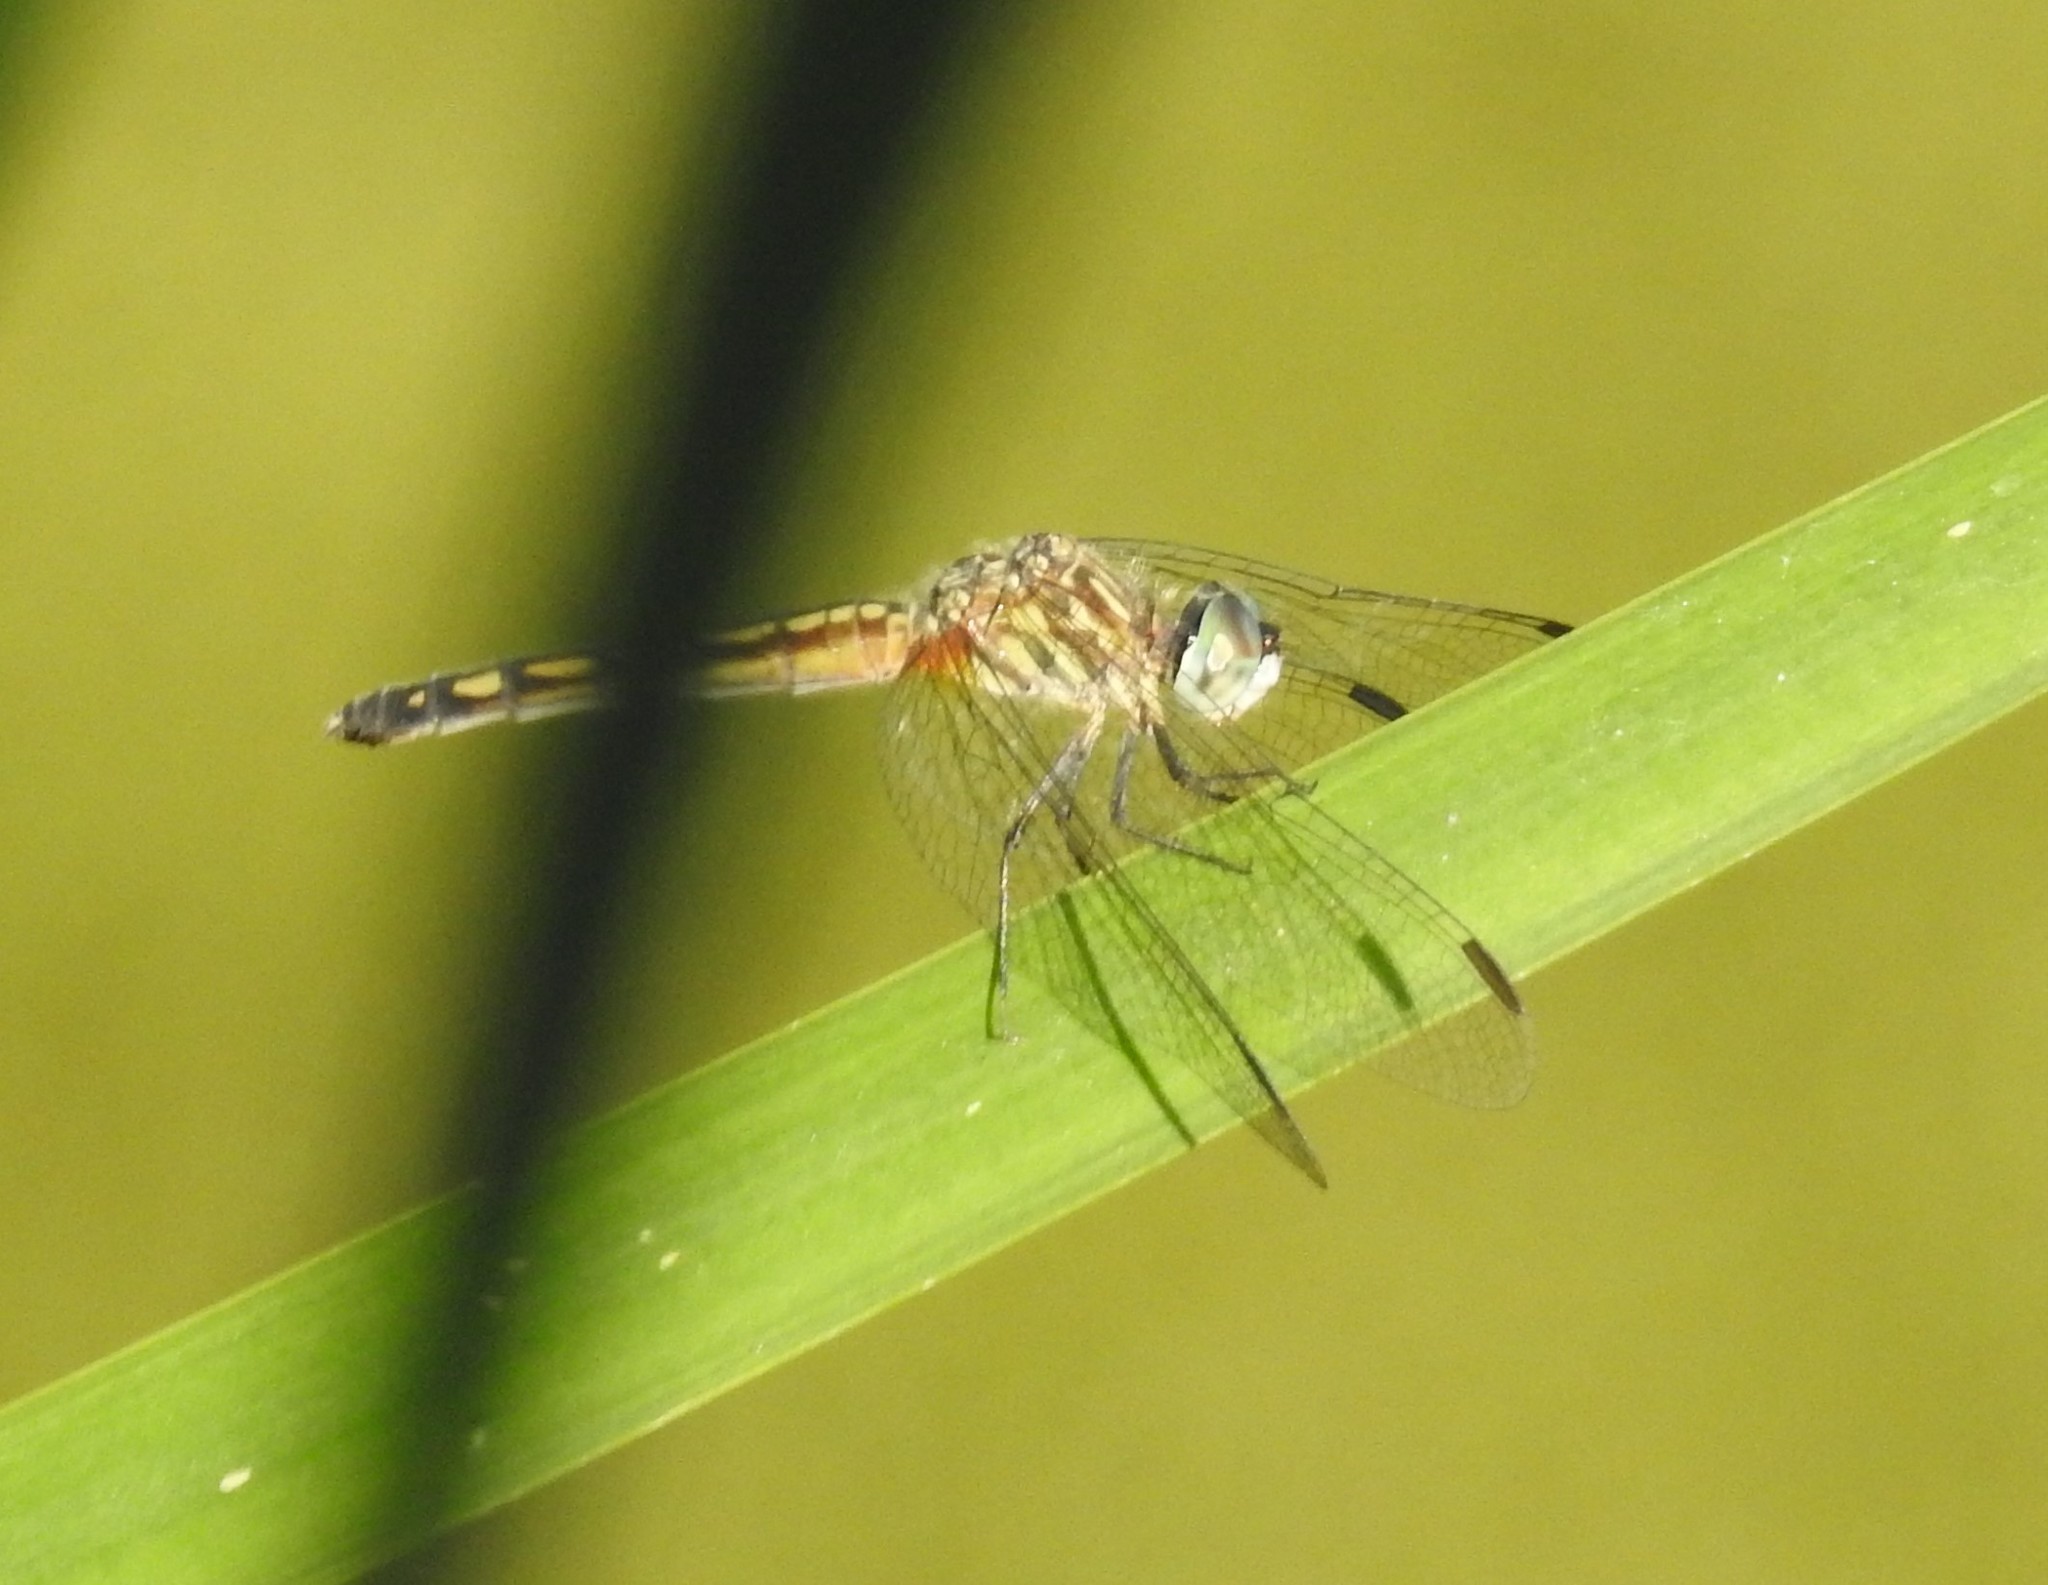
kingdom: Animalia
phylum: Arthropoda
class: Insecta
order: Odonata
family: Libellulidae
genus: Pachydiplax
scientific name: Pachydiplax longipennis
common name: Blue dasher
